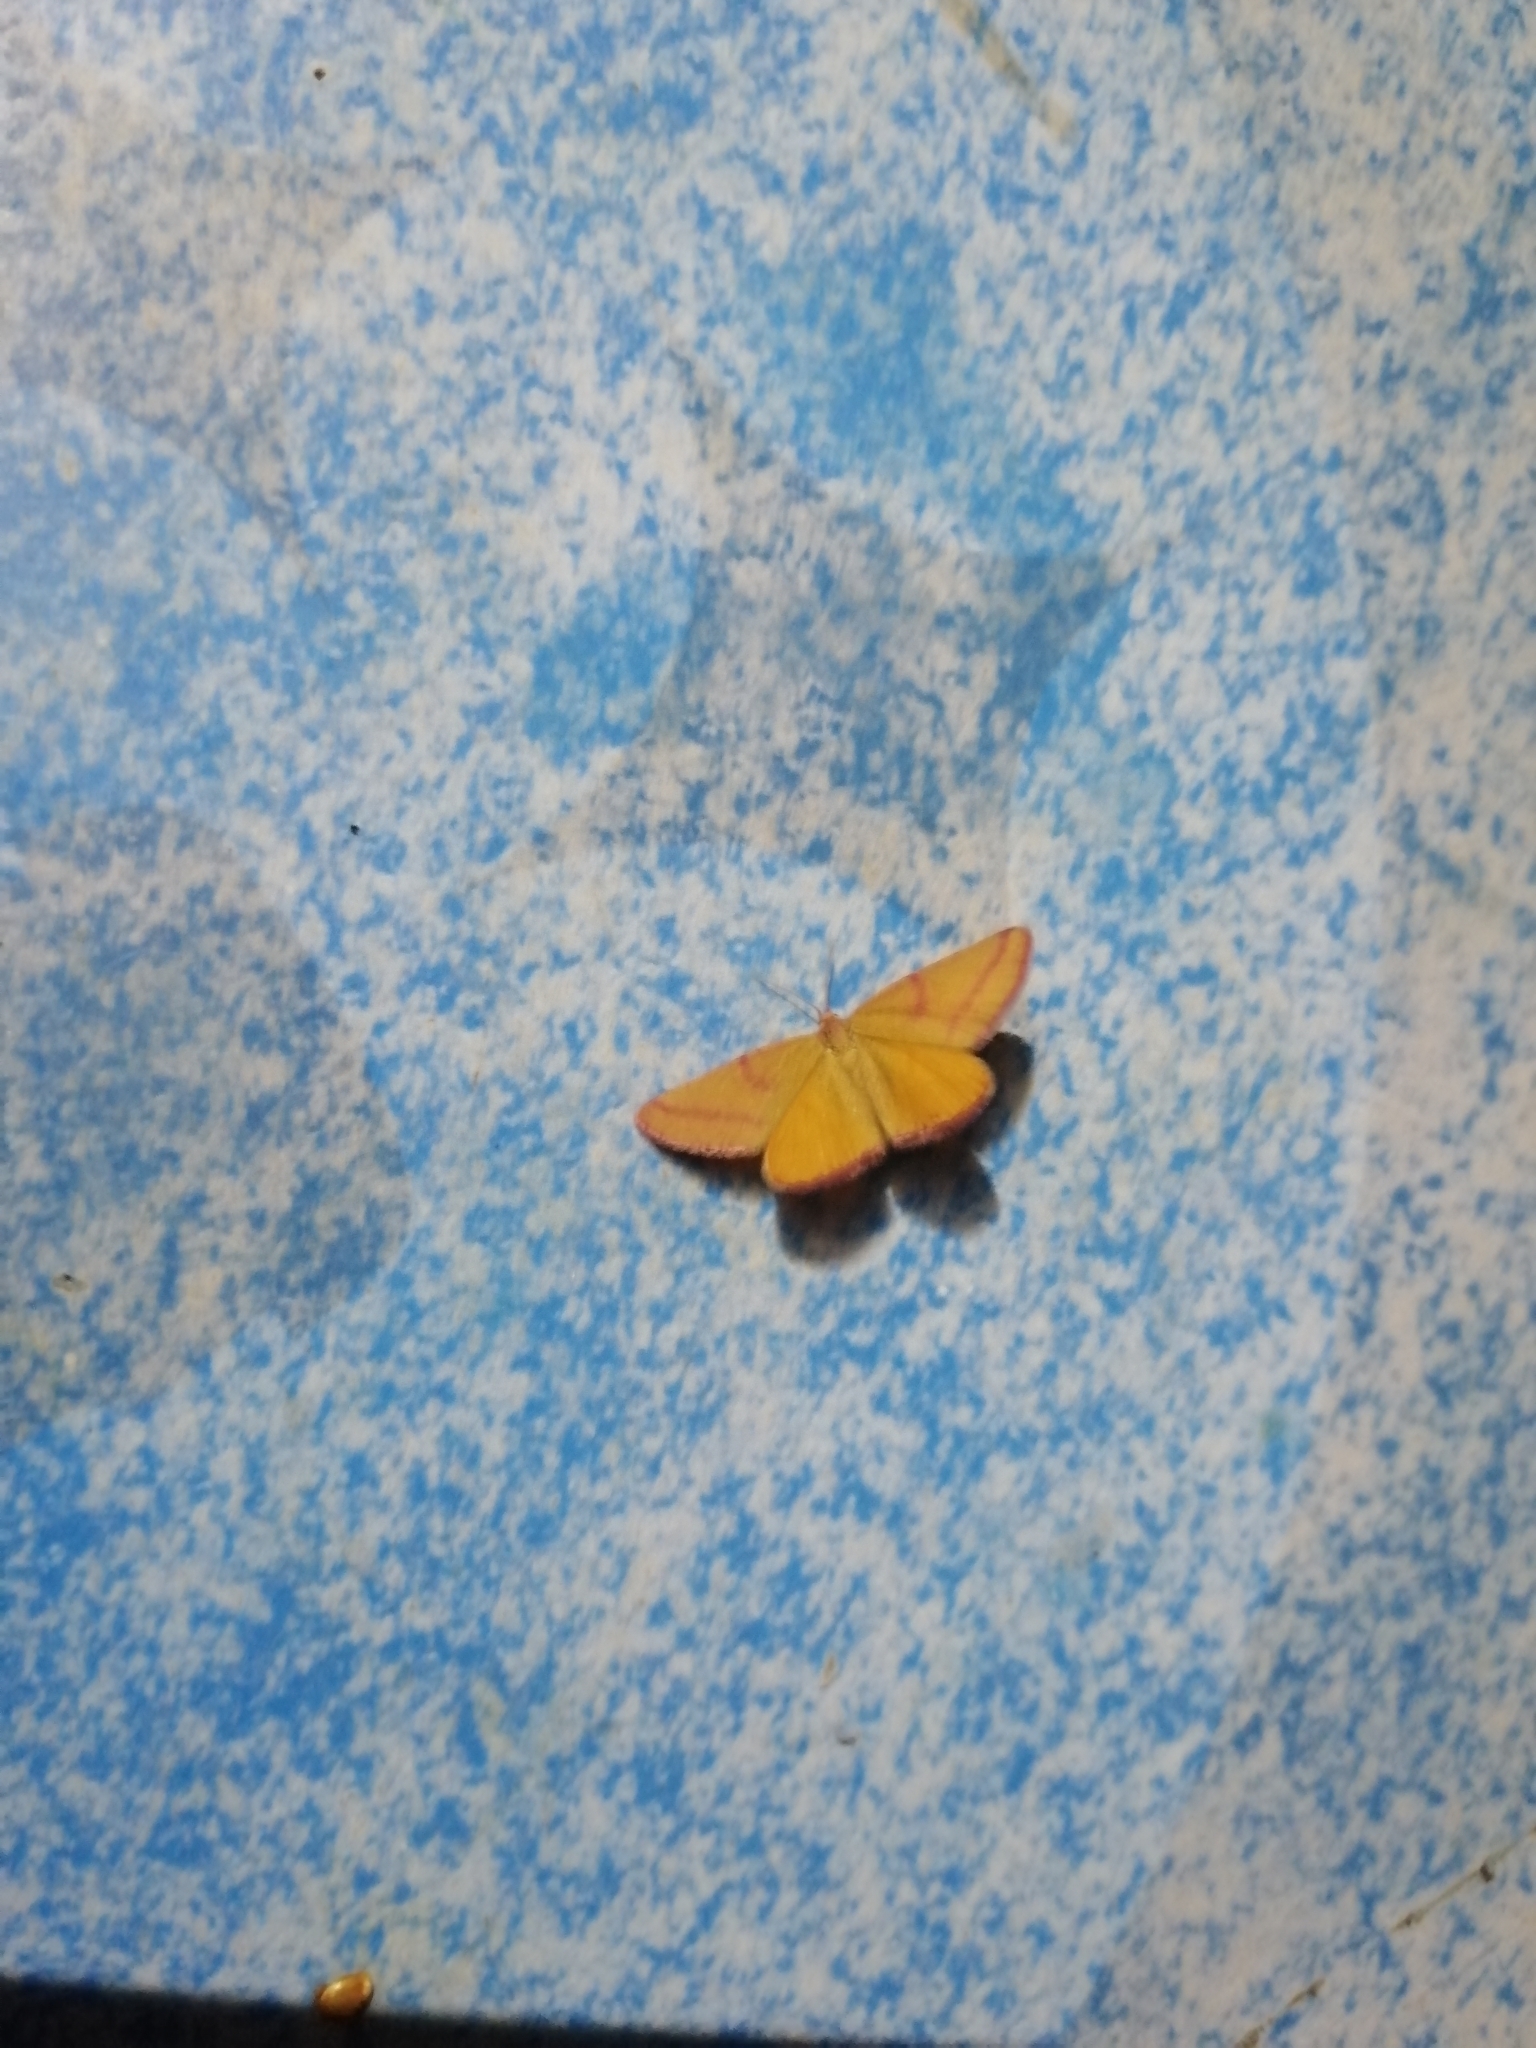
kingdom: Animalia
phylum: Arthropoda
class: Insecta
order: Lepidoptera
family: Geometridae
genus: Lythria
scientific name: Lythria purpuraria
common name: Purple-barred yellow
